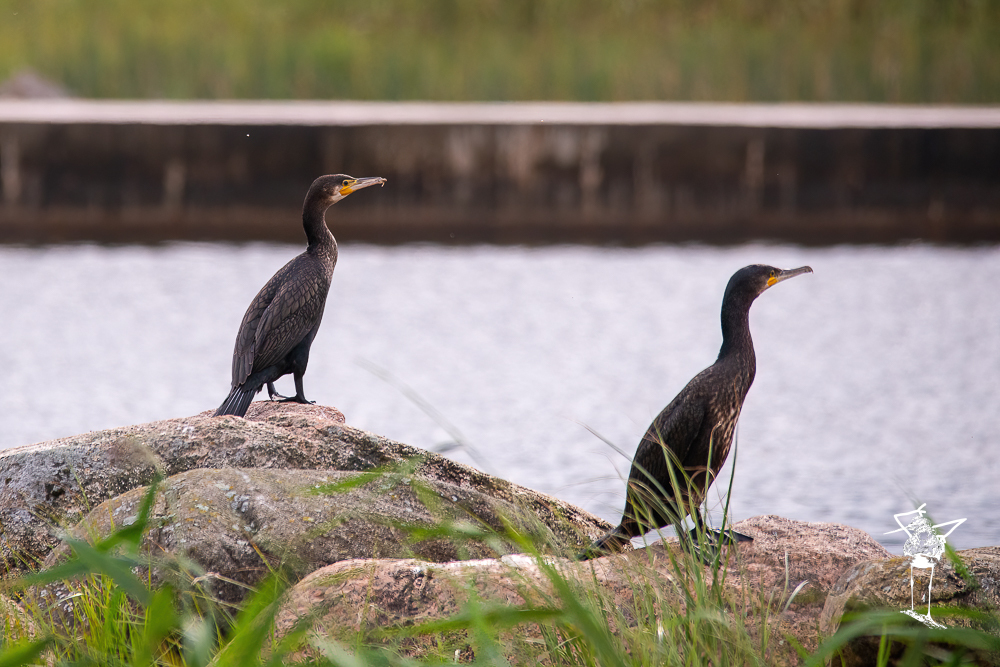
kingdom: Animalia
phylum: Chordata
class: Aves
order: Suliformes
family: Phalacrocoracidae
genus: Phalacrocorax
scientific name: Phalacrocorax carbo
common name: Great cormorant
